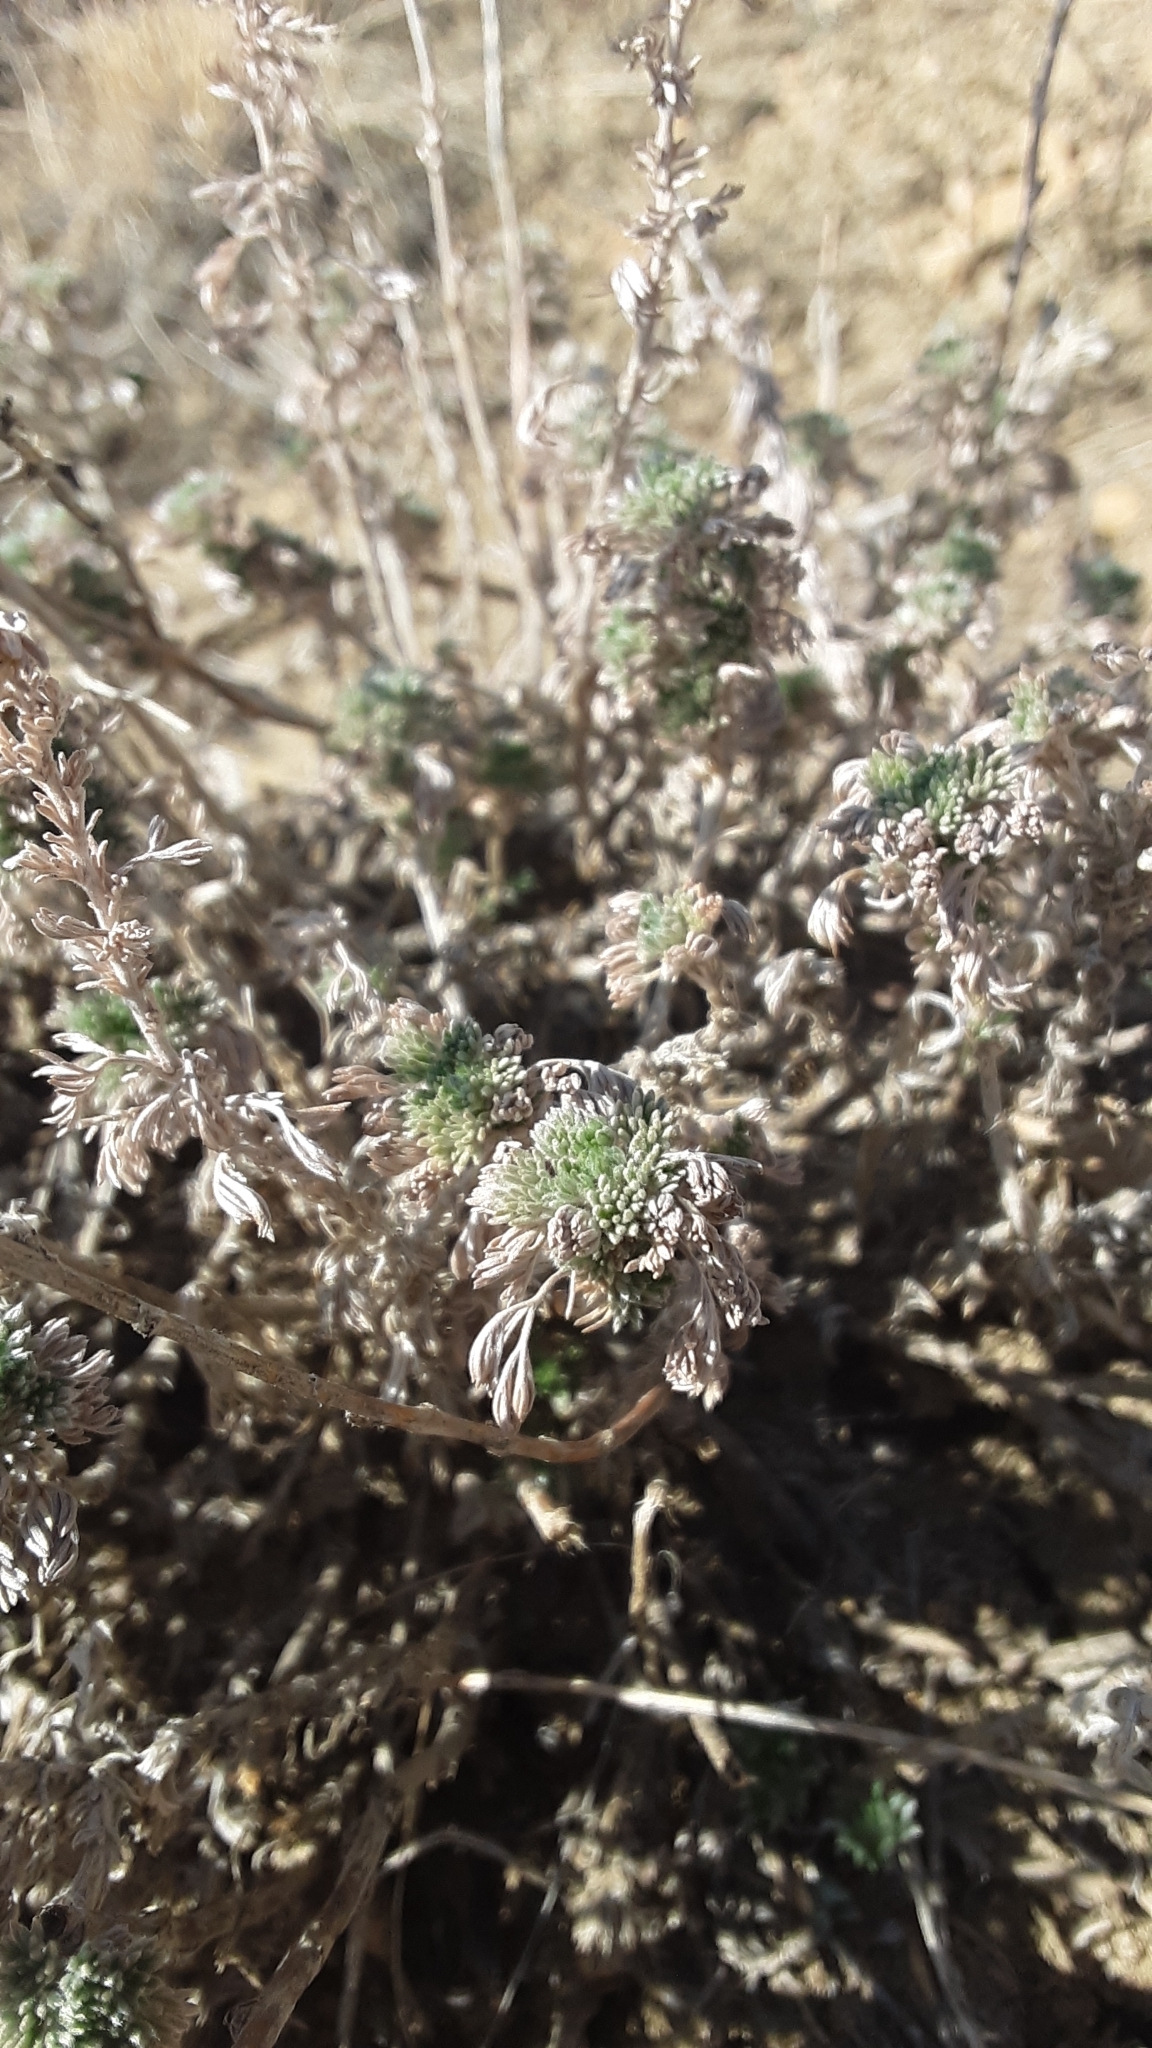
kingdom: Plantae
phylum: Tracheophyta
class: Magnoliopsida
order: Asterales
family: Asteraceae
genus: Artemisia
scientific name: Artemisia frigida
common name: Prairie sagewort
